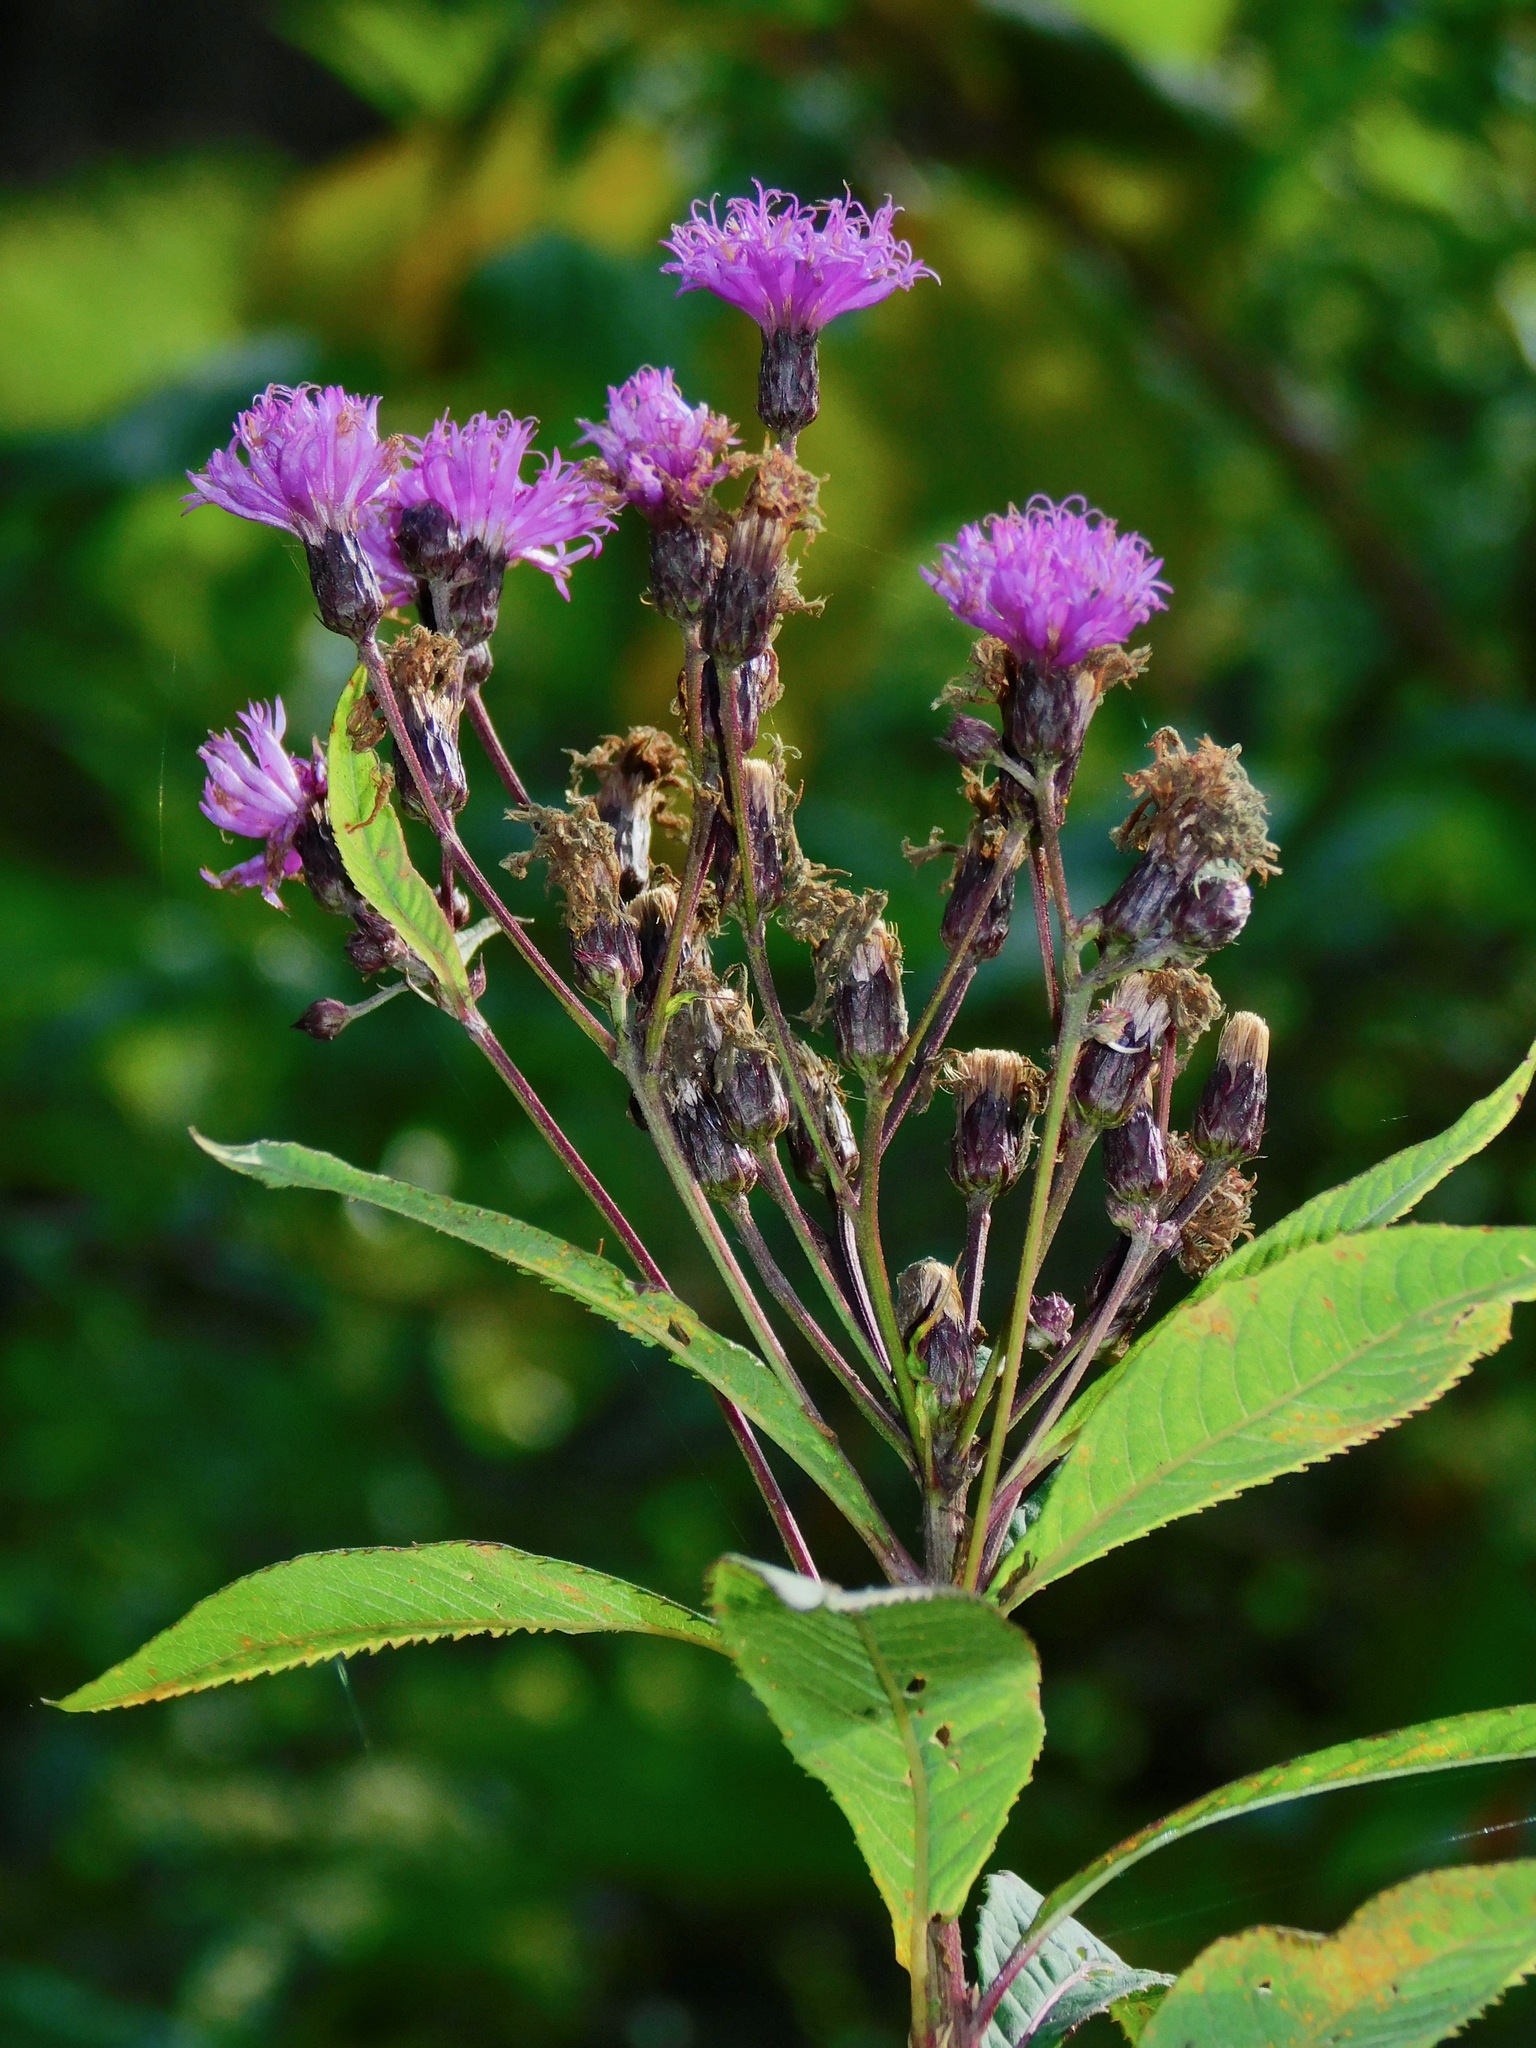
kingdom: Plantae
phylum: Tracheophyta
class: Magnoliopsida
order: Asterales
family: Asteraceae
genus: Vernonia
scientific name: Vernonia gigantea
